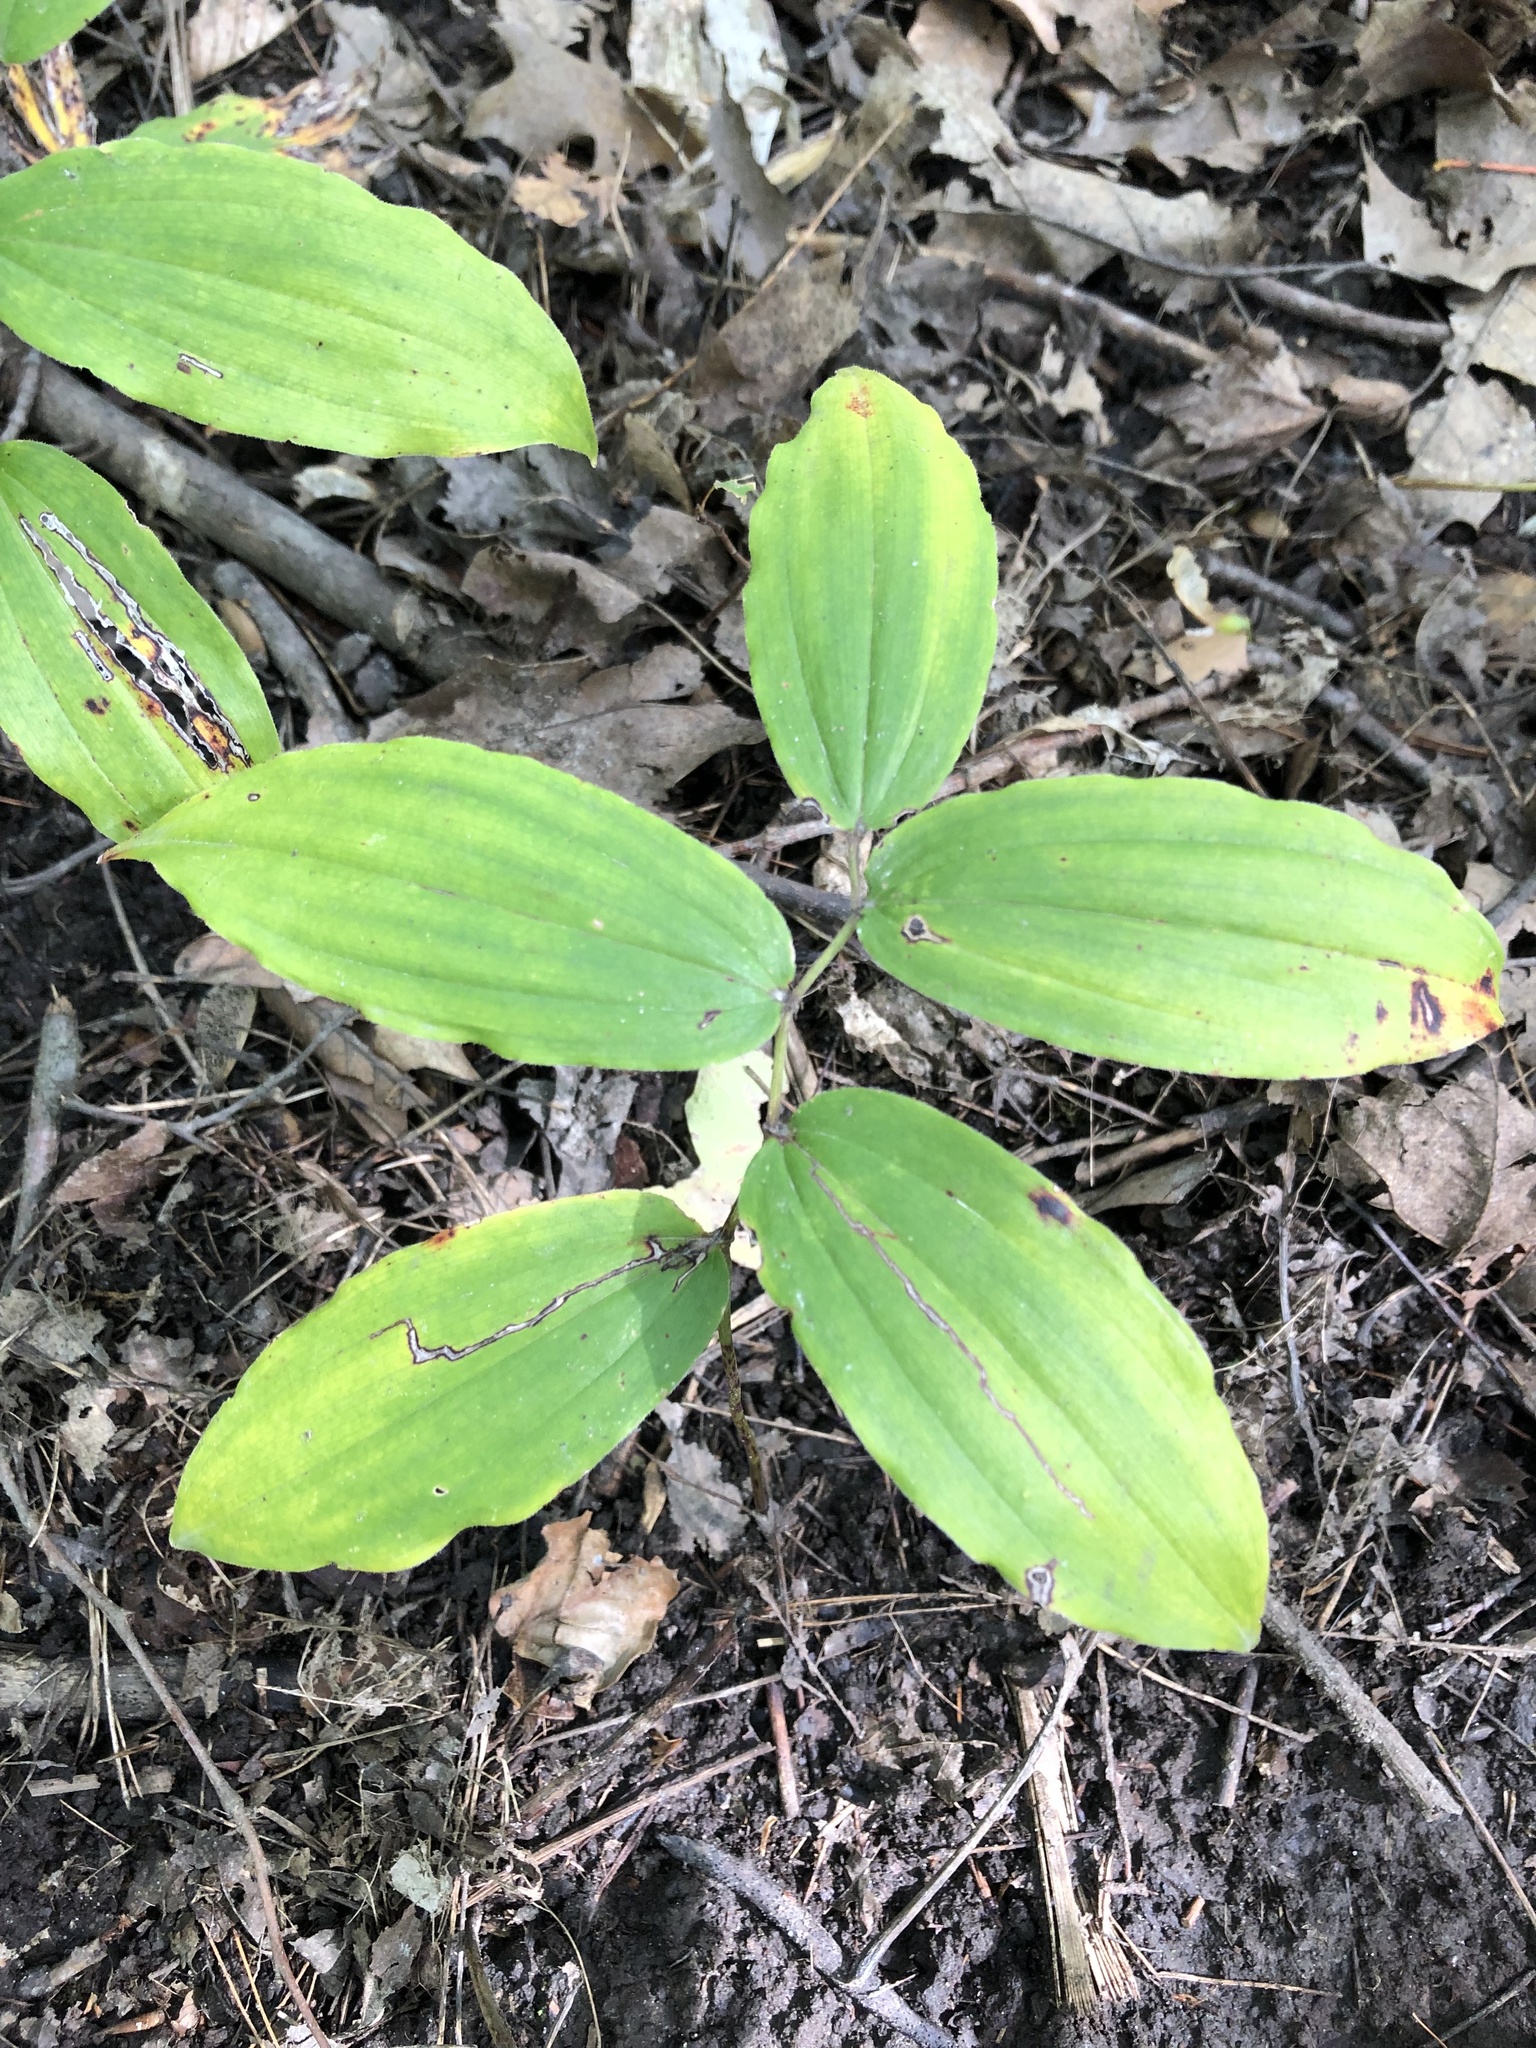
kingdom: Plantae
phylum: Tracheophyta
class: Liliopsida
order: Asparagales
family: Asparagaceae
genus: Maianthemum
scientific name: Maianthemum racemosum
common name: False spikenard
